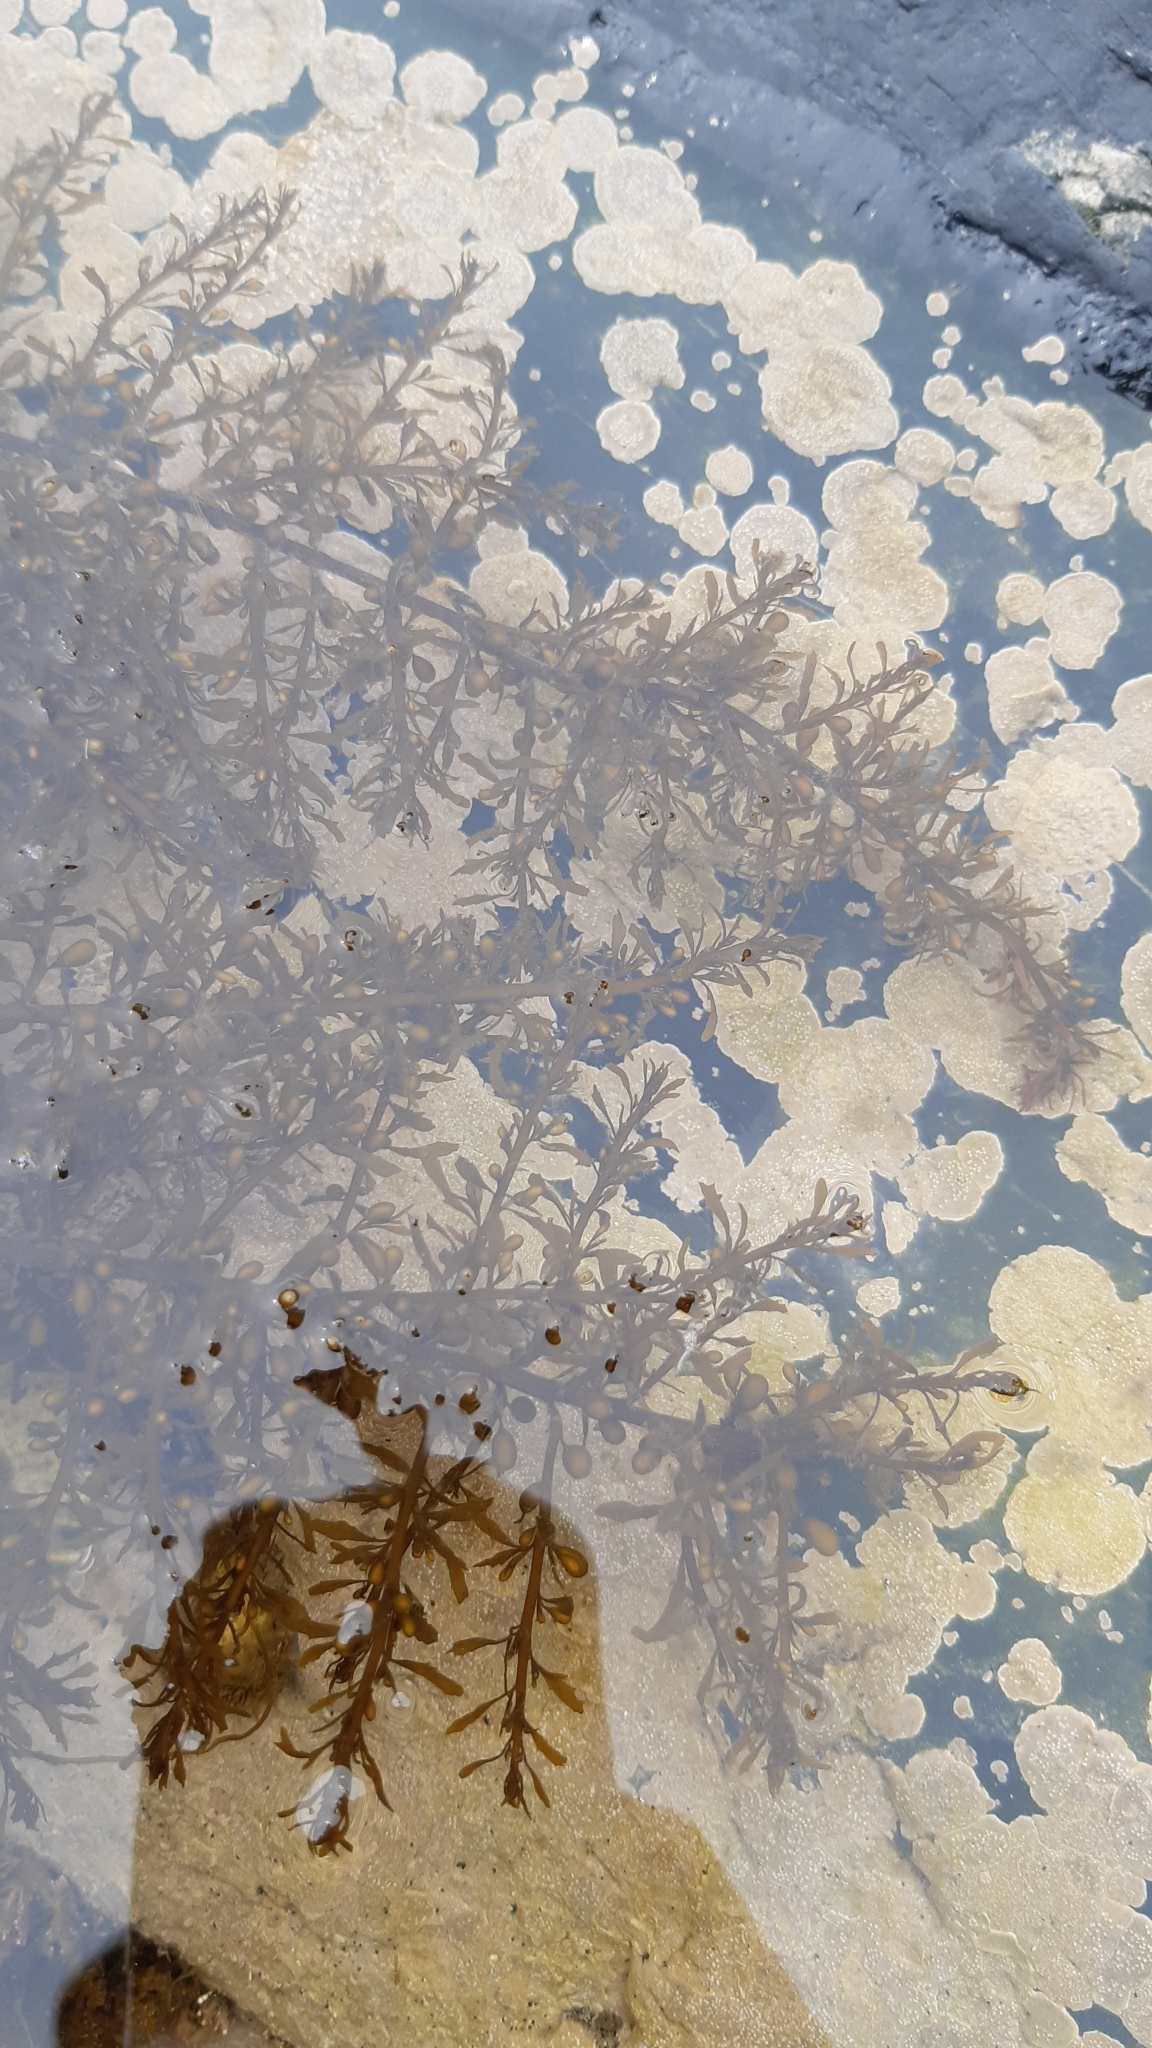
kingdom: Chromista
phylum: Ochrophyta
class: Phaeophyceae
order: Fucales
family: Sargassaceae
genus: Sargassum
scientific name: Sargassum muticum
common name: Japweed
